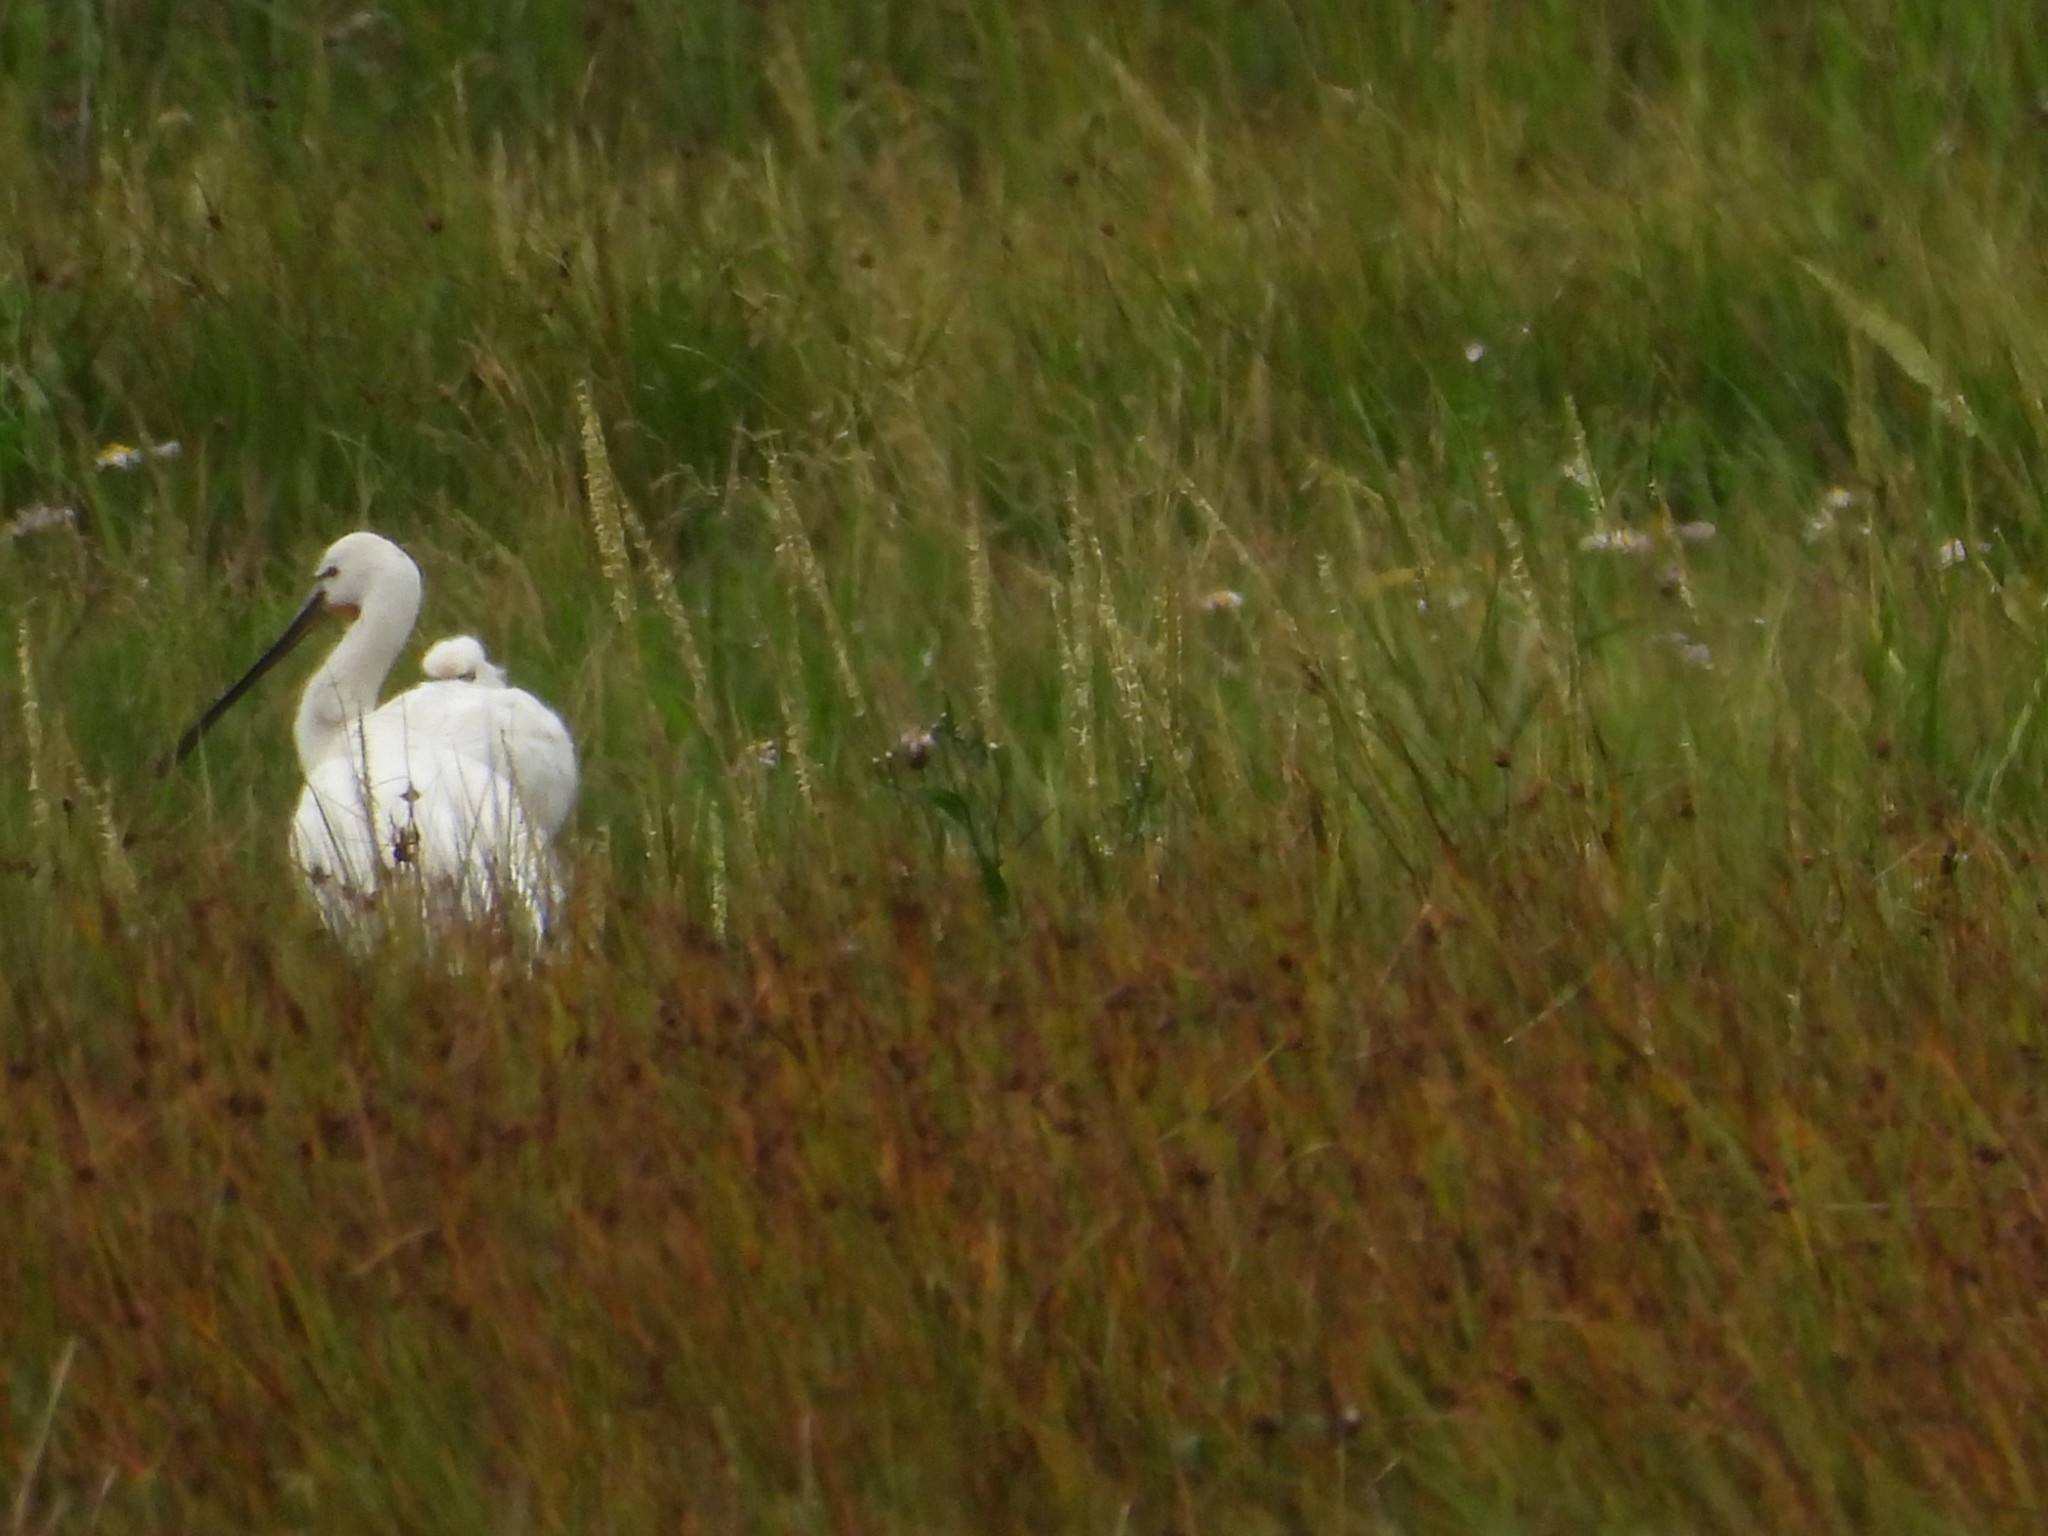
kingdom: Animalia
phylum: Chordata
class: Aves
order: Pelecaniformes
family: Threskiornithidae
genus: Platalea
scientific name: Platalea leucorodia
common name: Eurasian spoonbill
